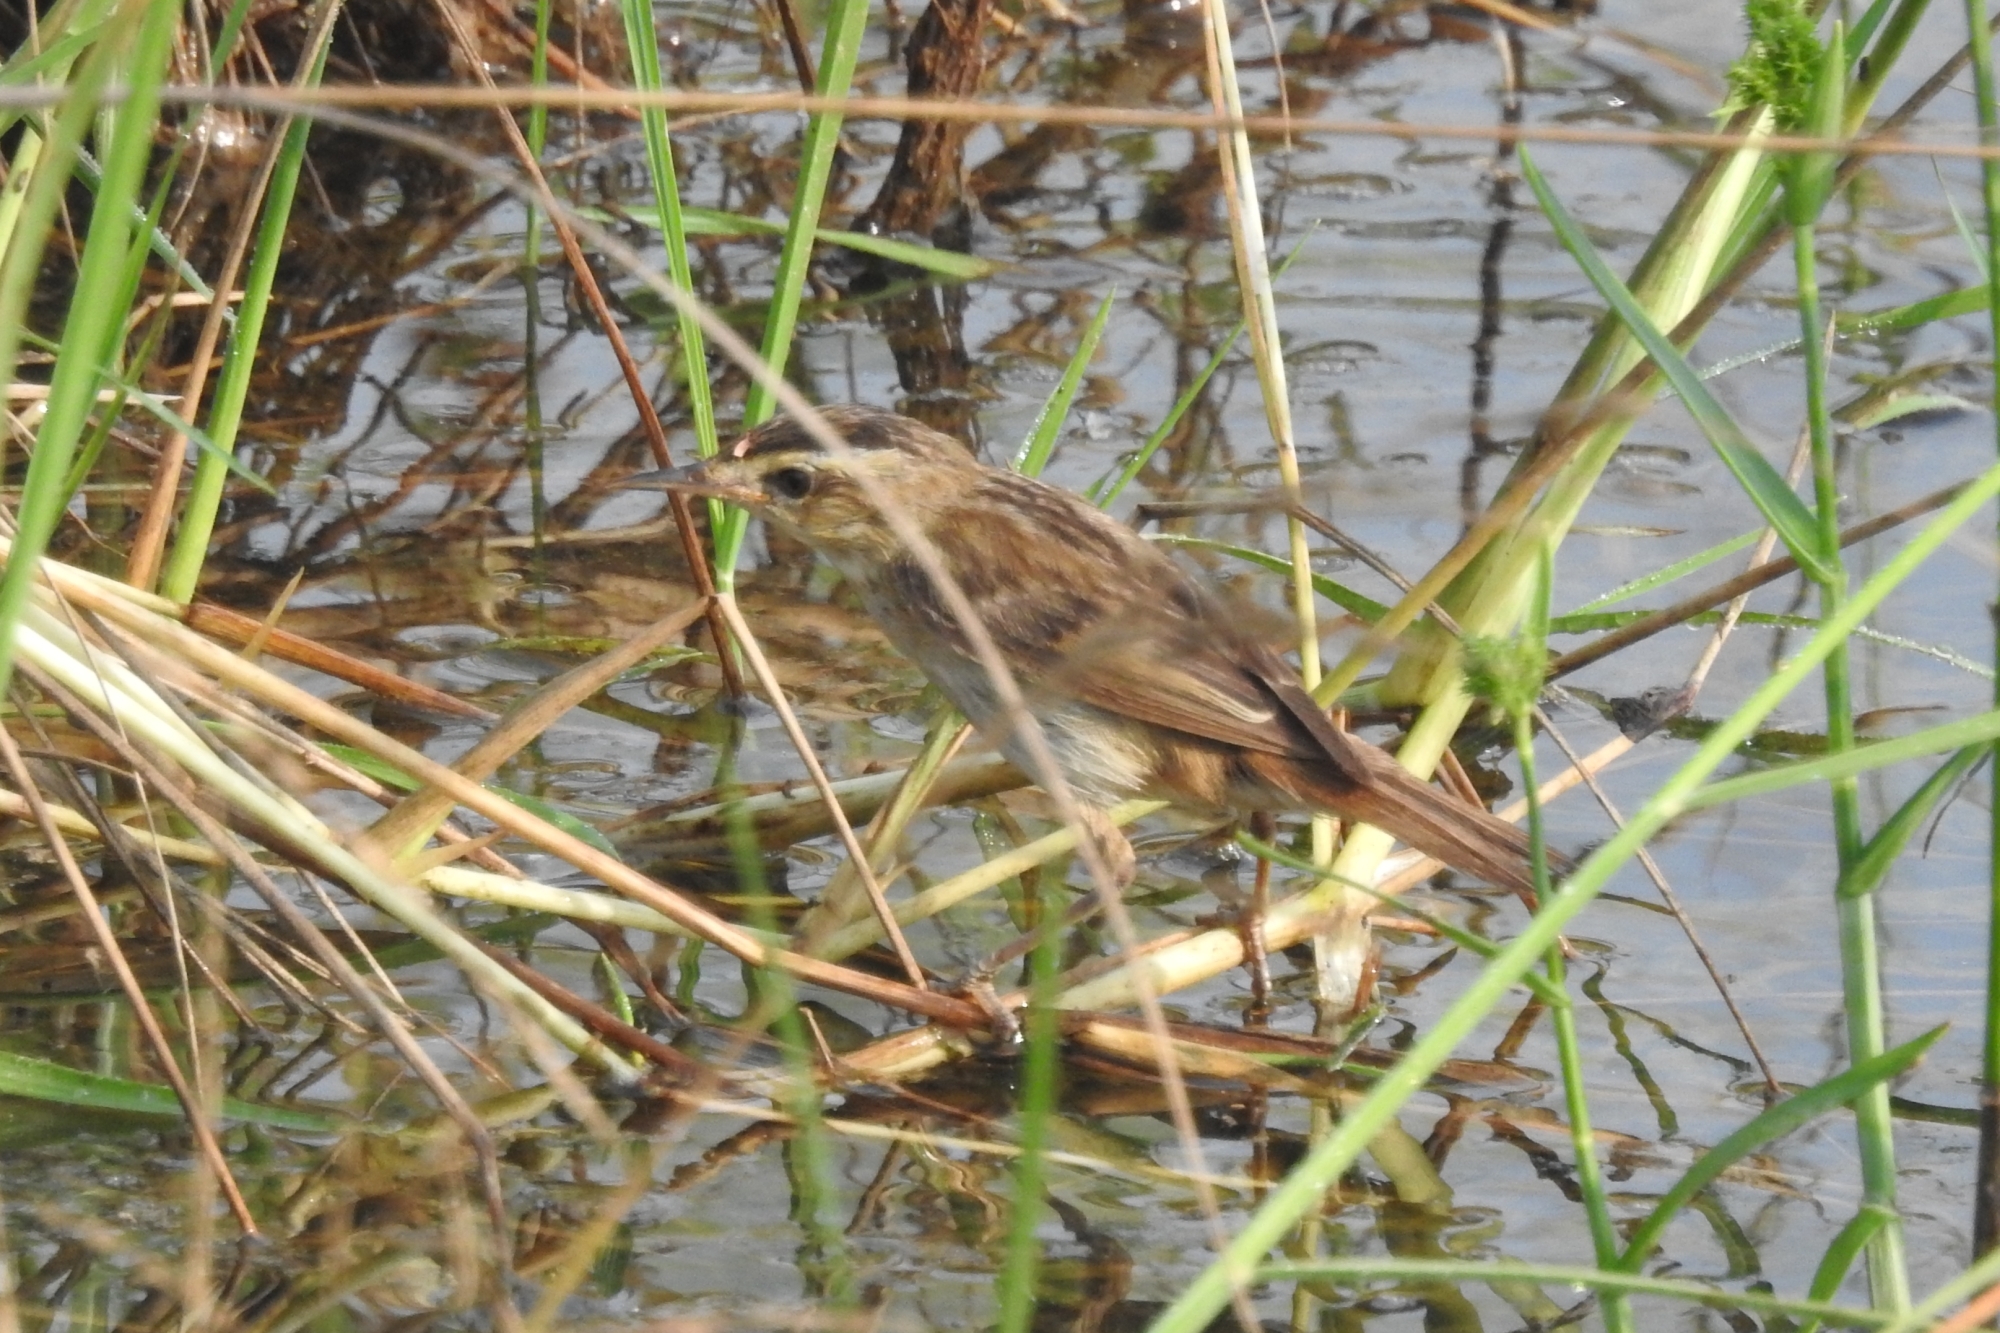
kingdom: Animalia
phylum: Chordata
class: Aves
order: Passeriformes
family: Acrocephalidae
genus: Acrocephalus
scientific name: Acrocephalus schoenobaenus
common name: Sedge warbler
